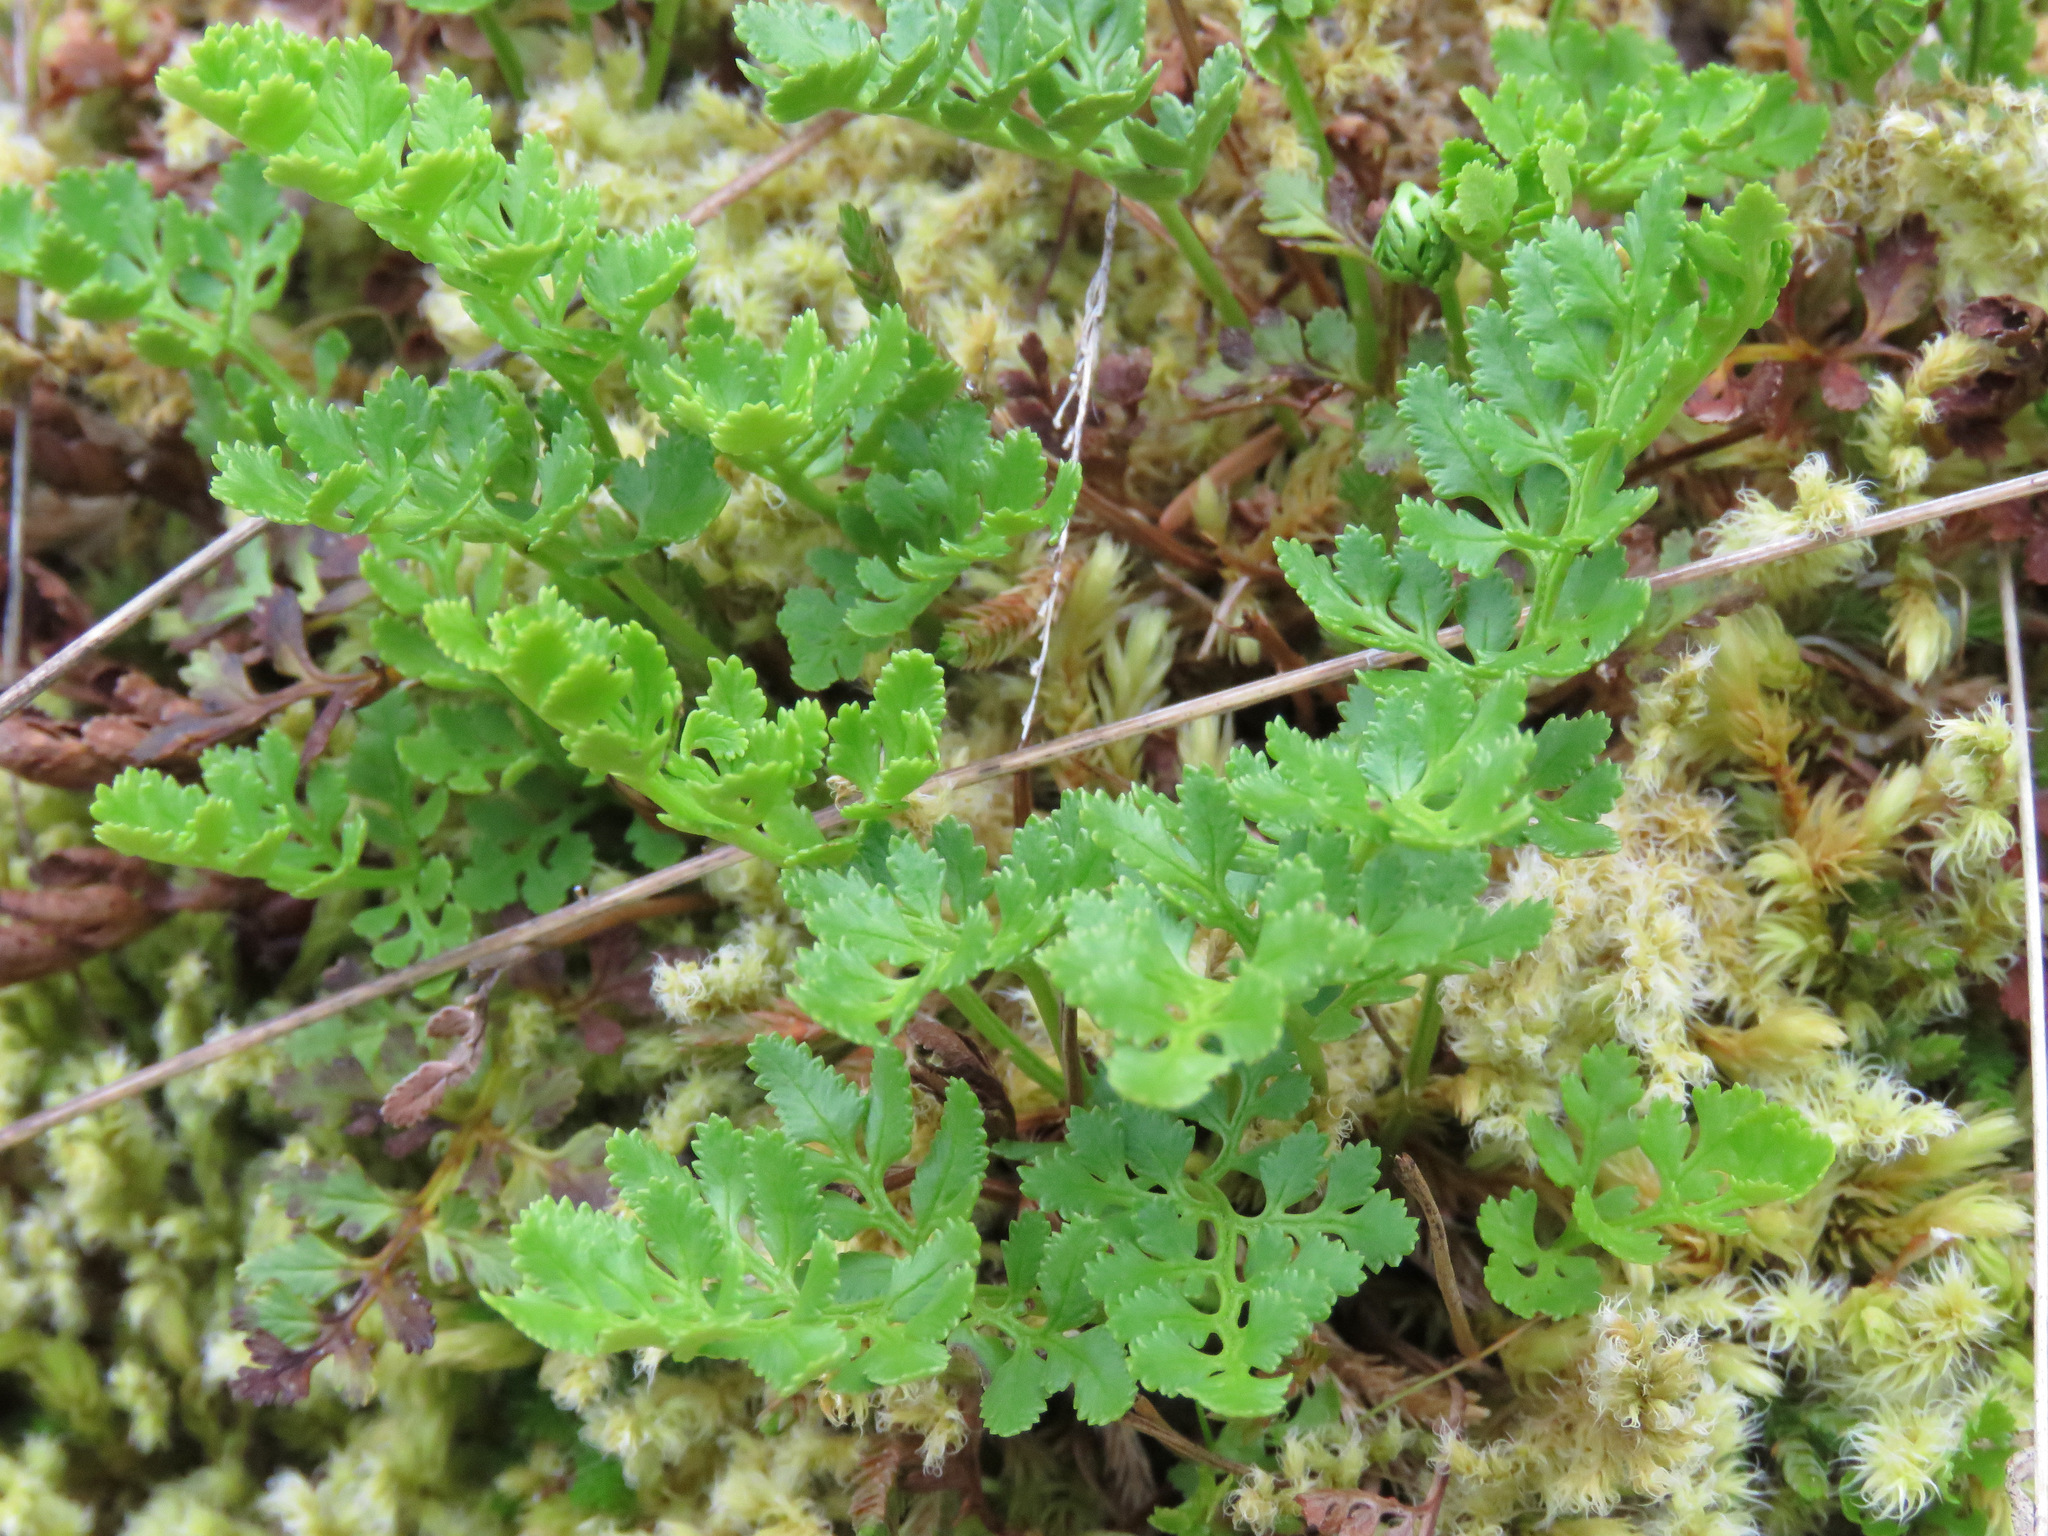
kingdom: Plantae
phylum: Tracheophyta
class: Polypodiopsida
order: Polypodiales
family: Pteridaceae
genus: Cryptogramma
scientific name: Cryptogramma acrostichoides
